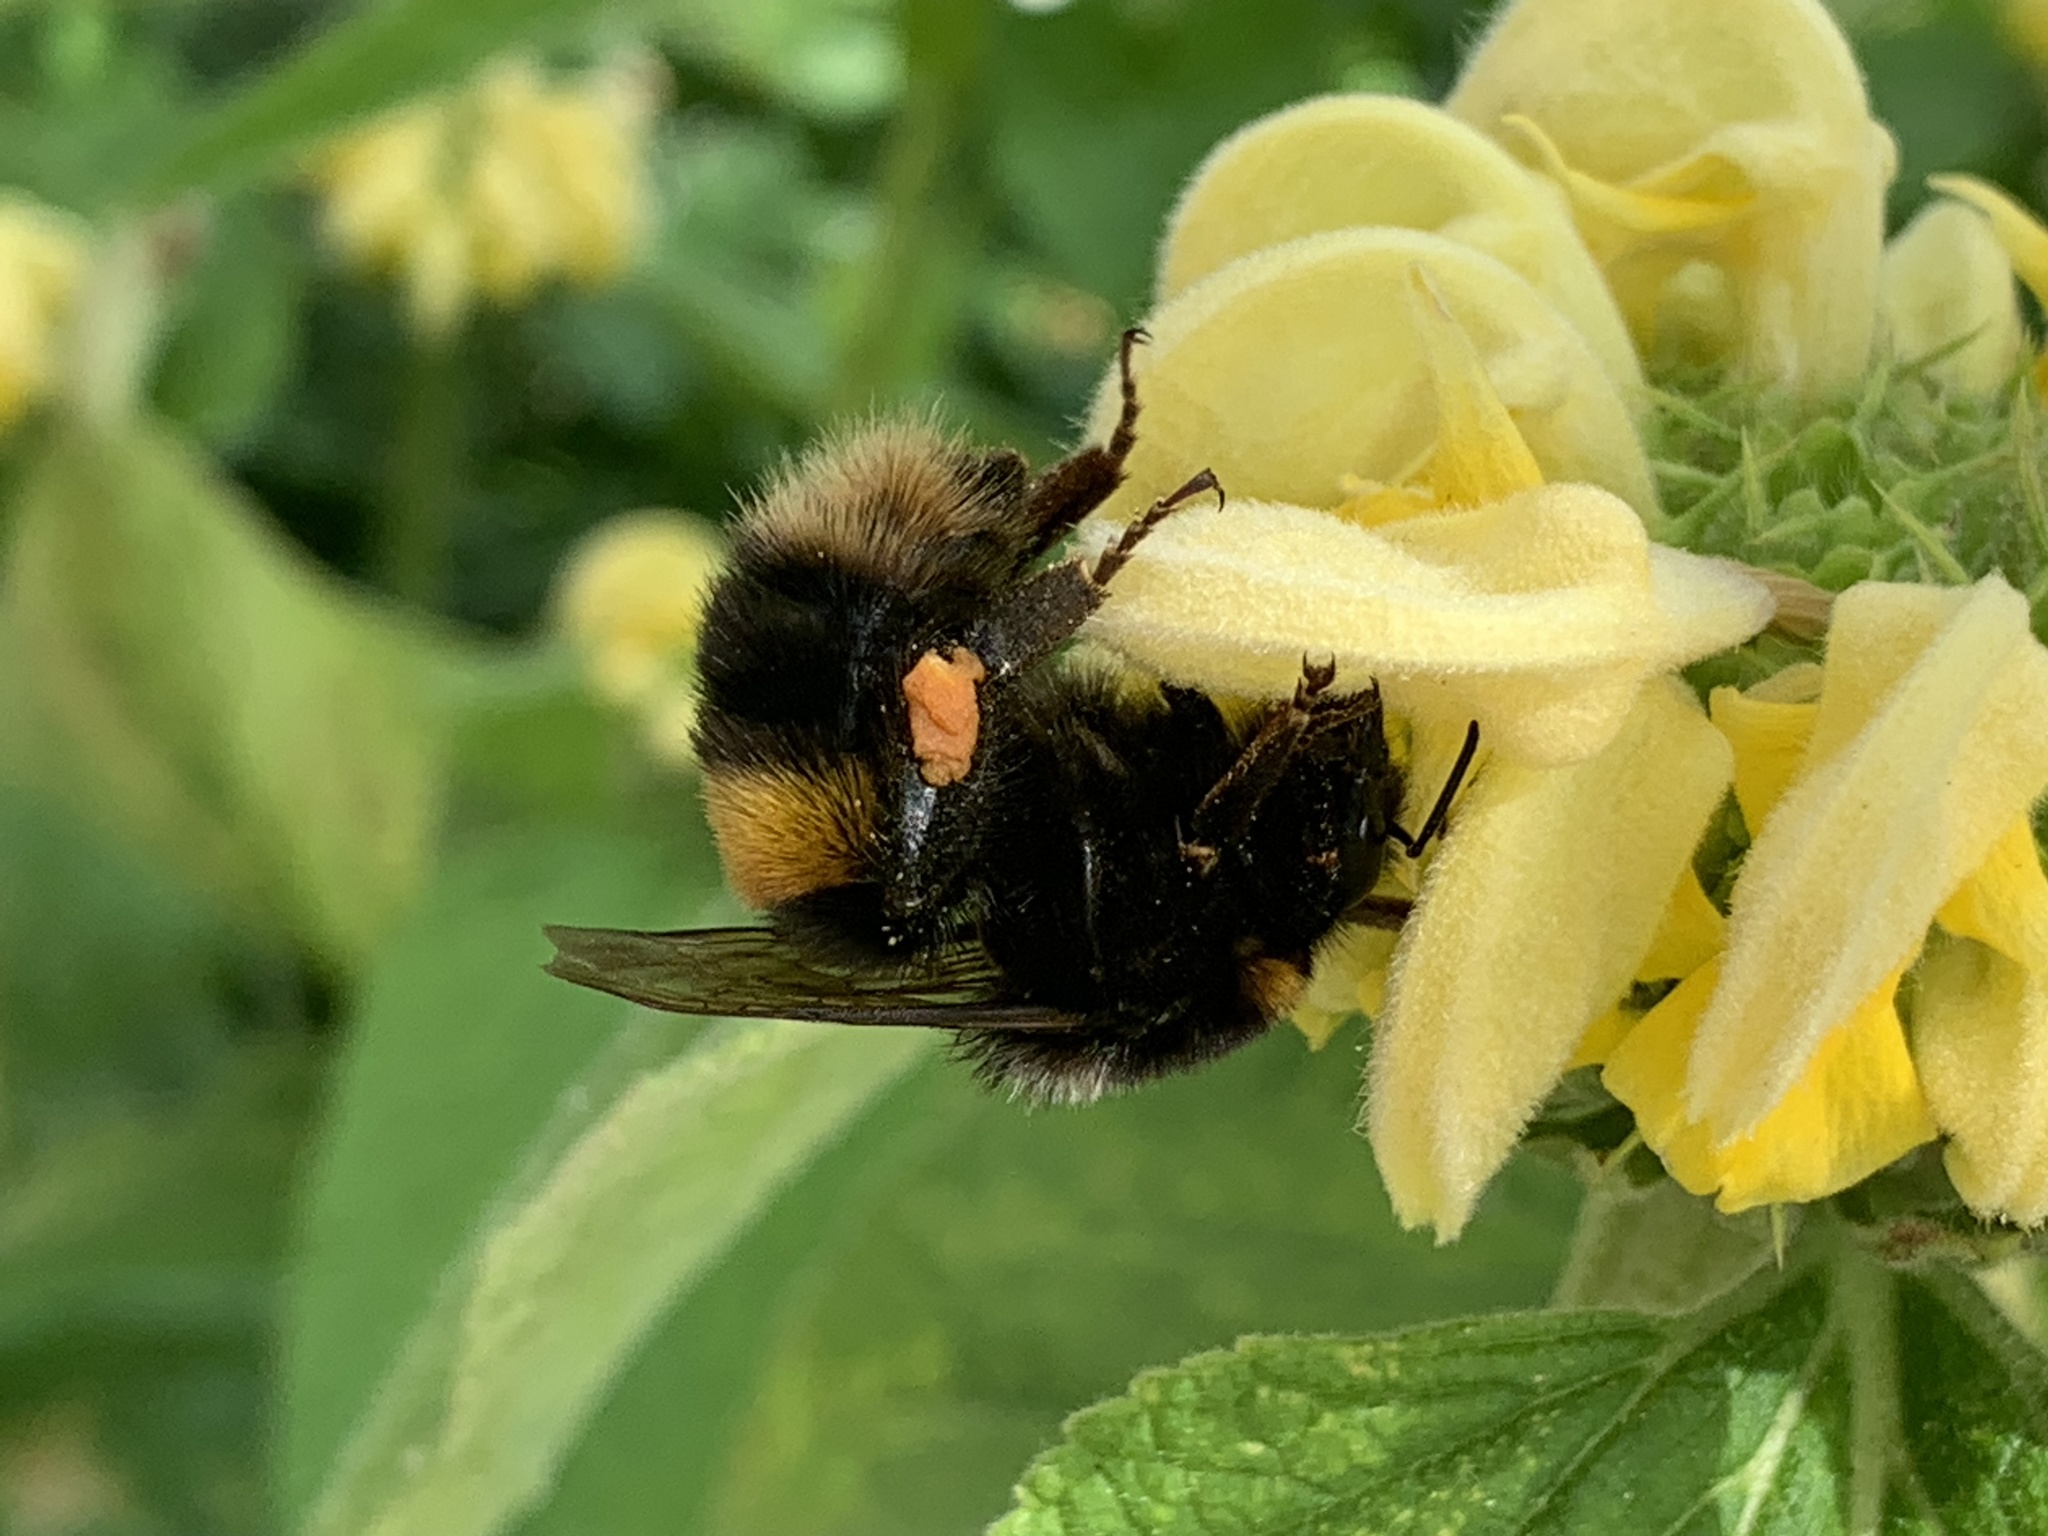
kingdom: Animalia
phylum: Arthropoda
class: Insecta
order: Hymenoptera
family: Apidae
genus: Bombus
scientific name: Bombus terrestris
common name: Buff-tailed bumblebee
